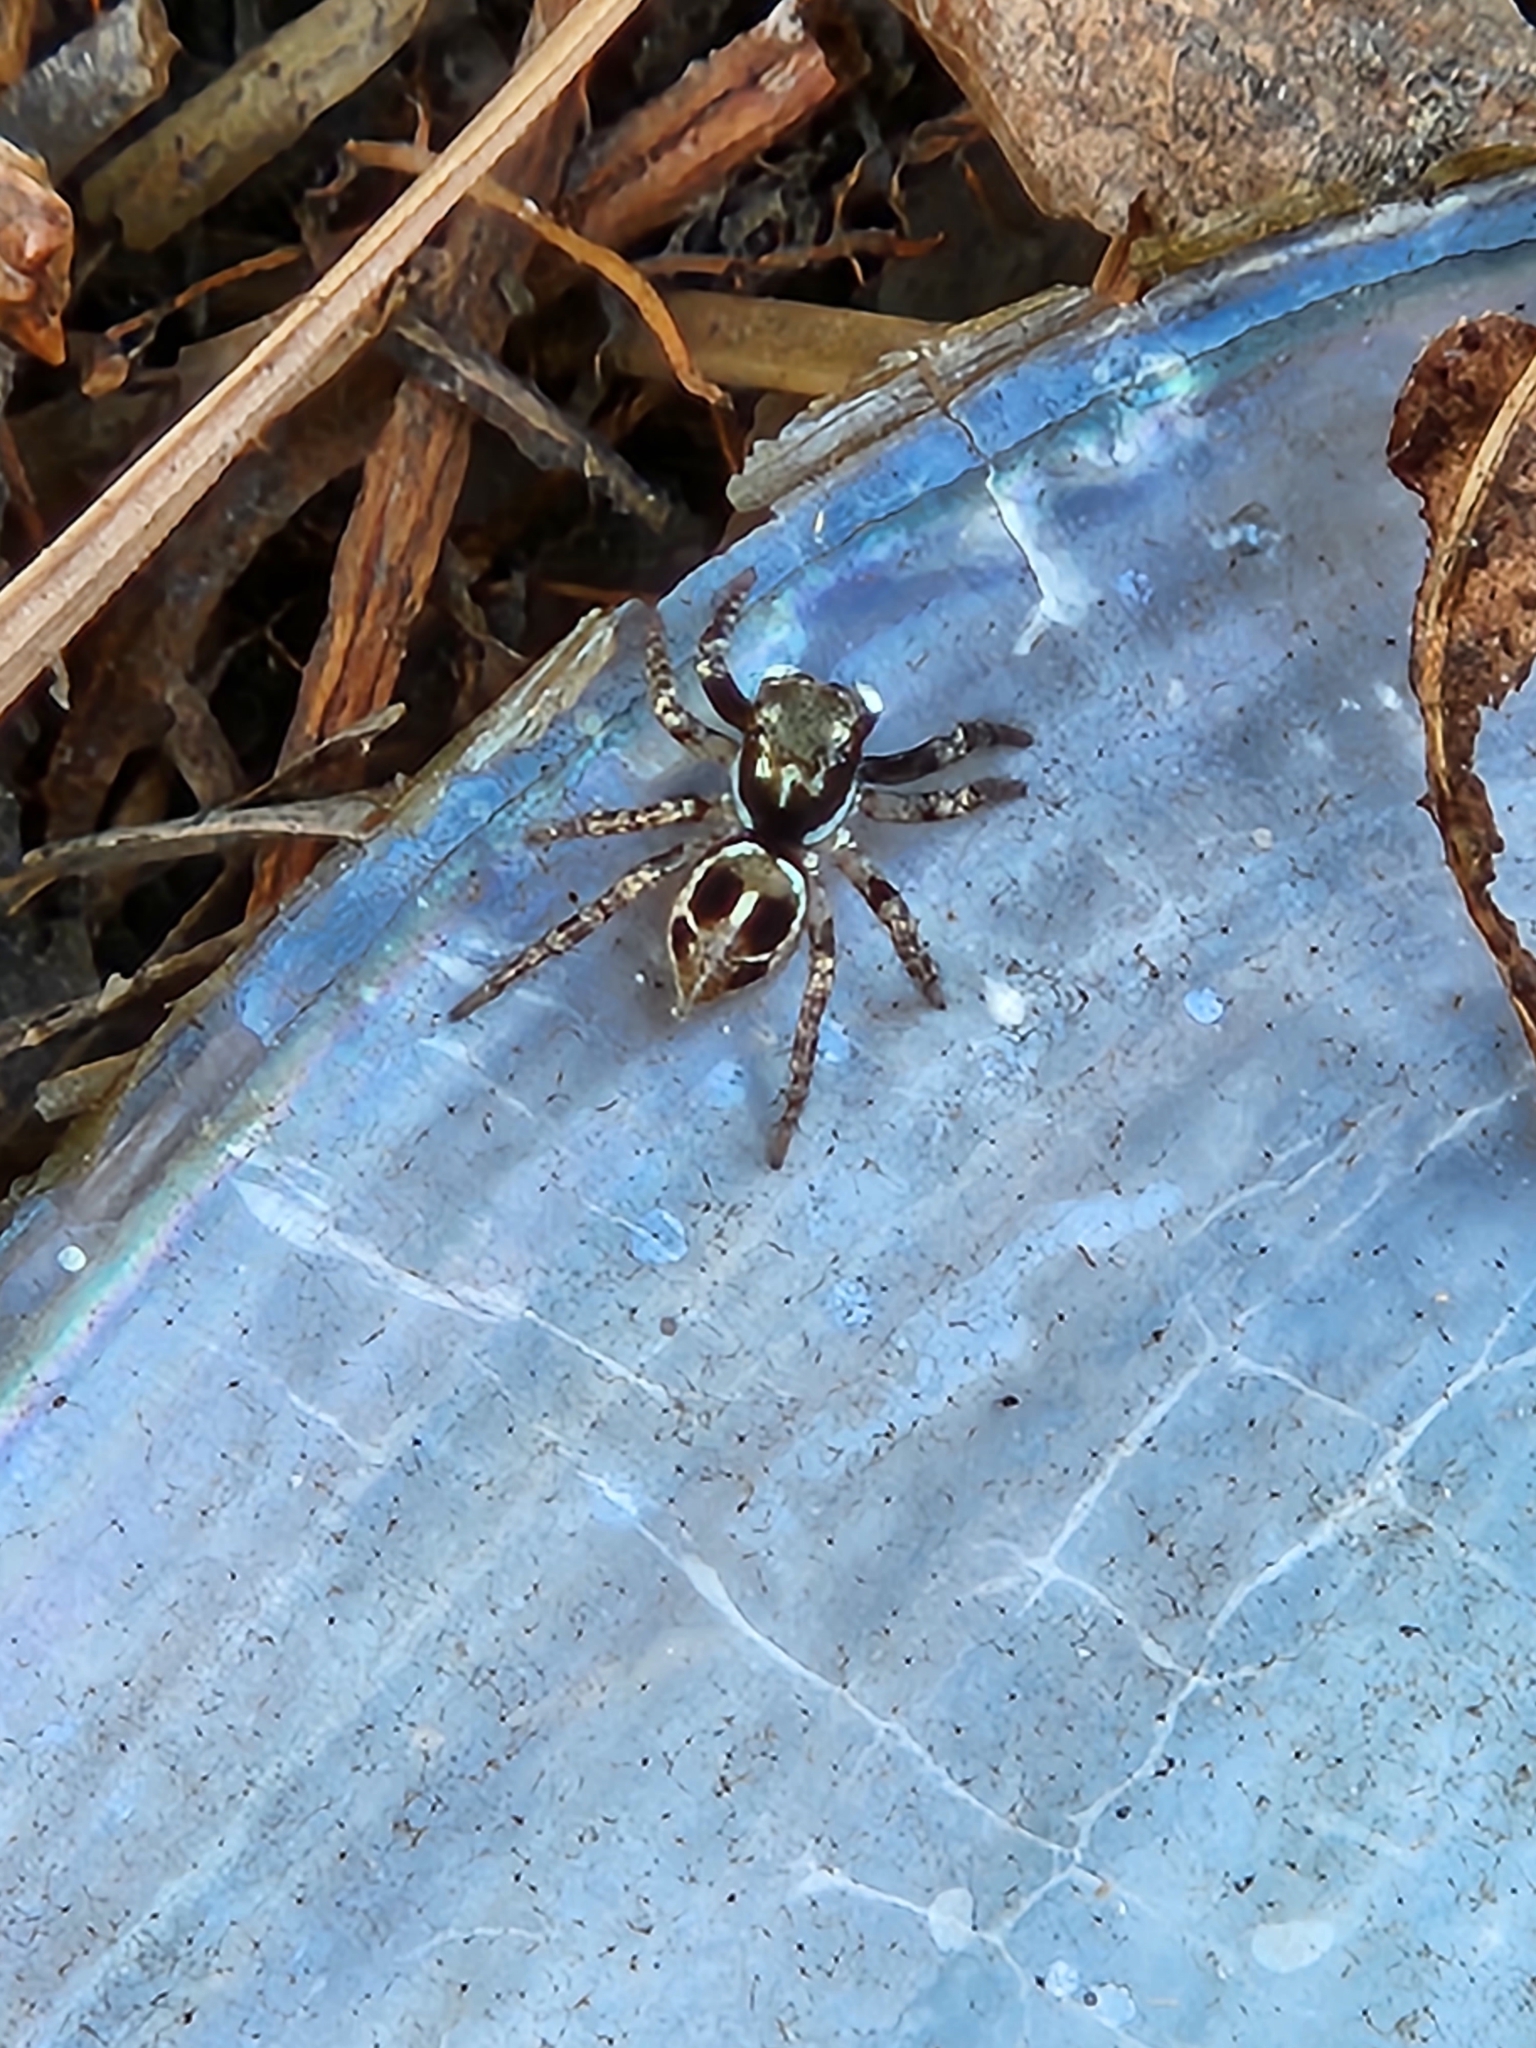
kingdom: Animalia
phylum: Arthropoda
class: Arachnida
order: Araneae
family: Salticidae
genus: Anasaitis
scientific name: Anasaitis canosa
